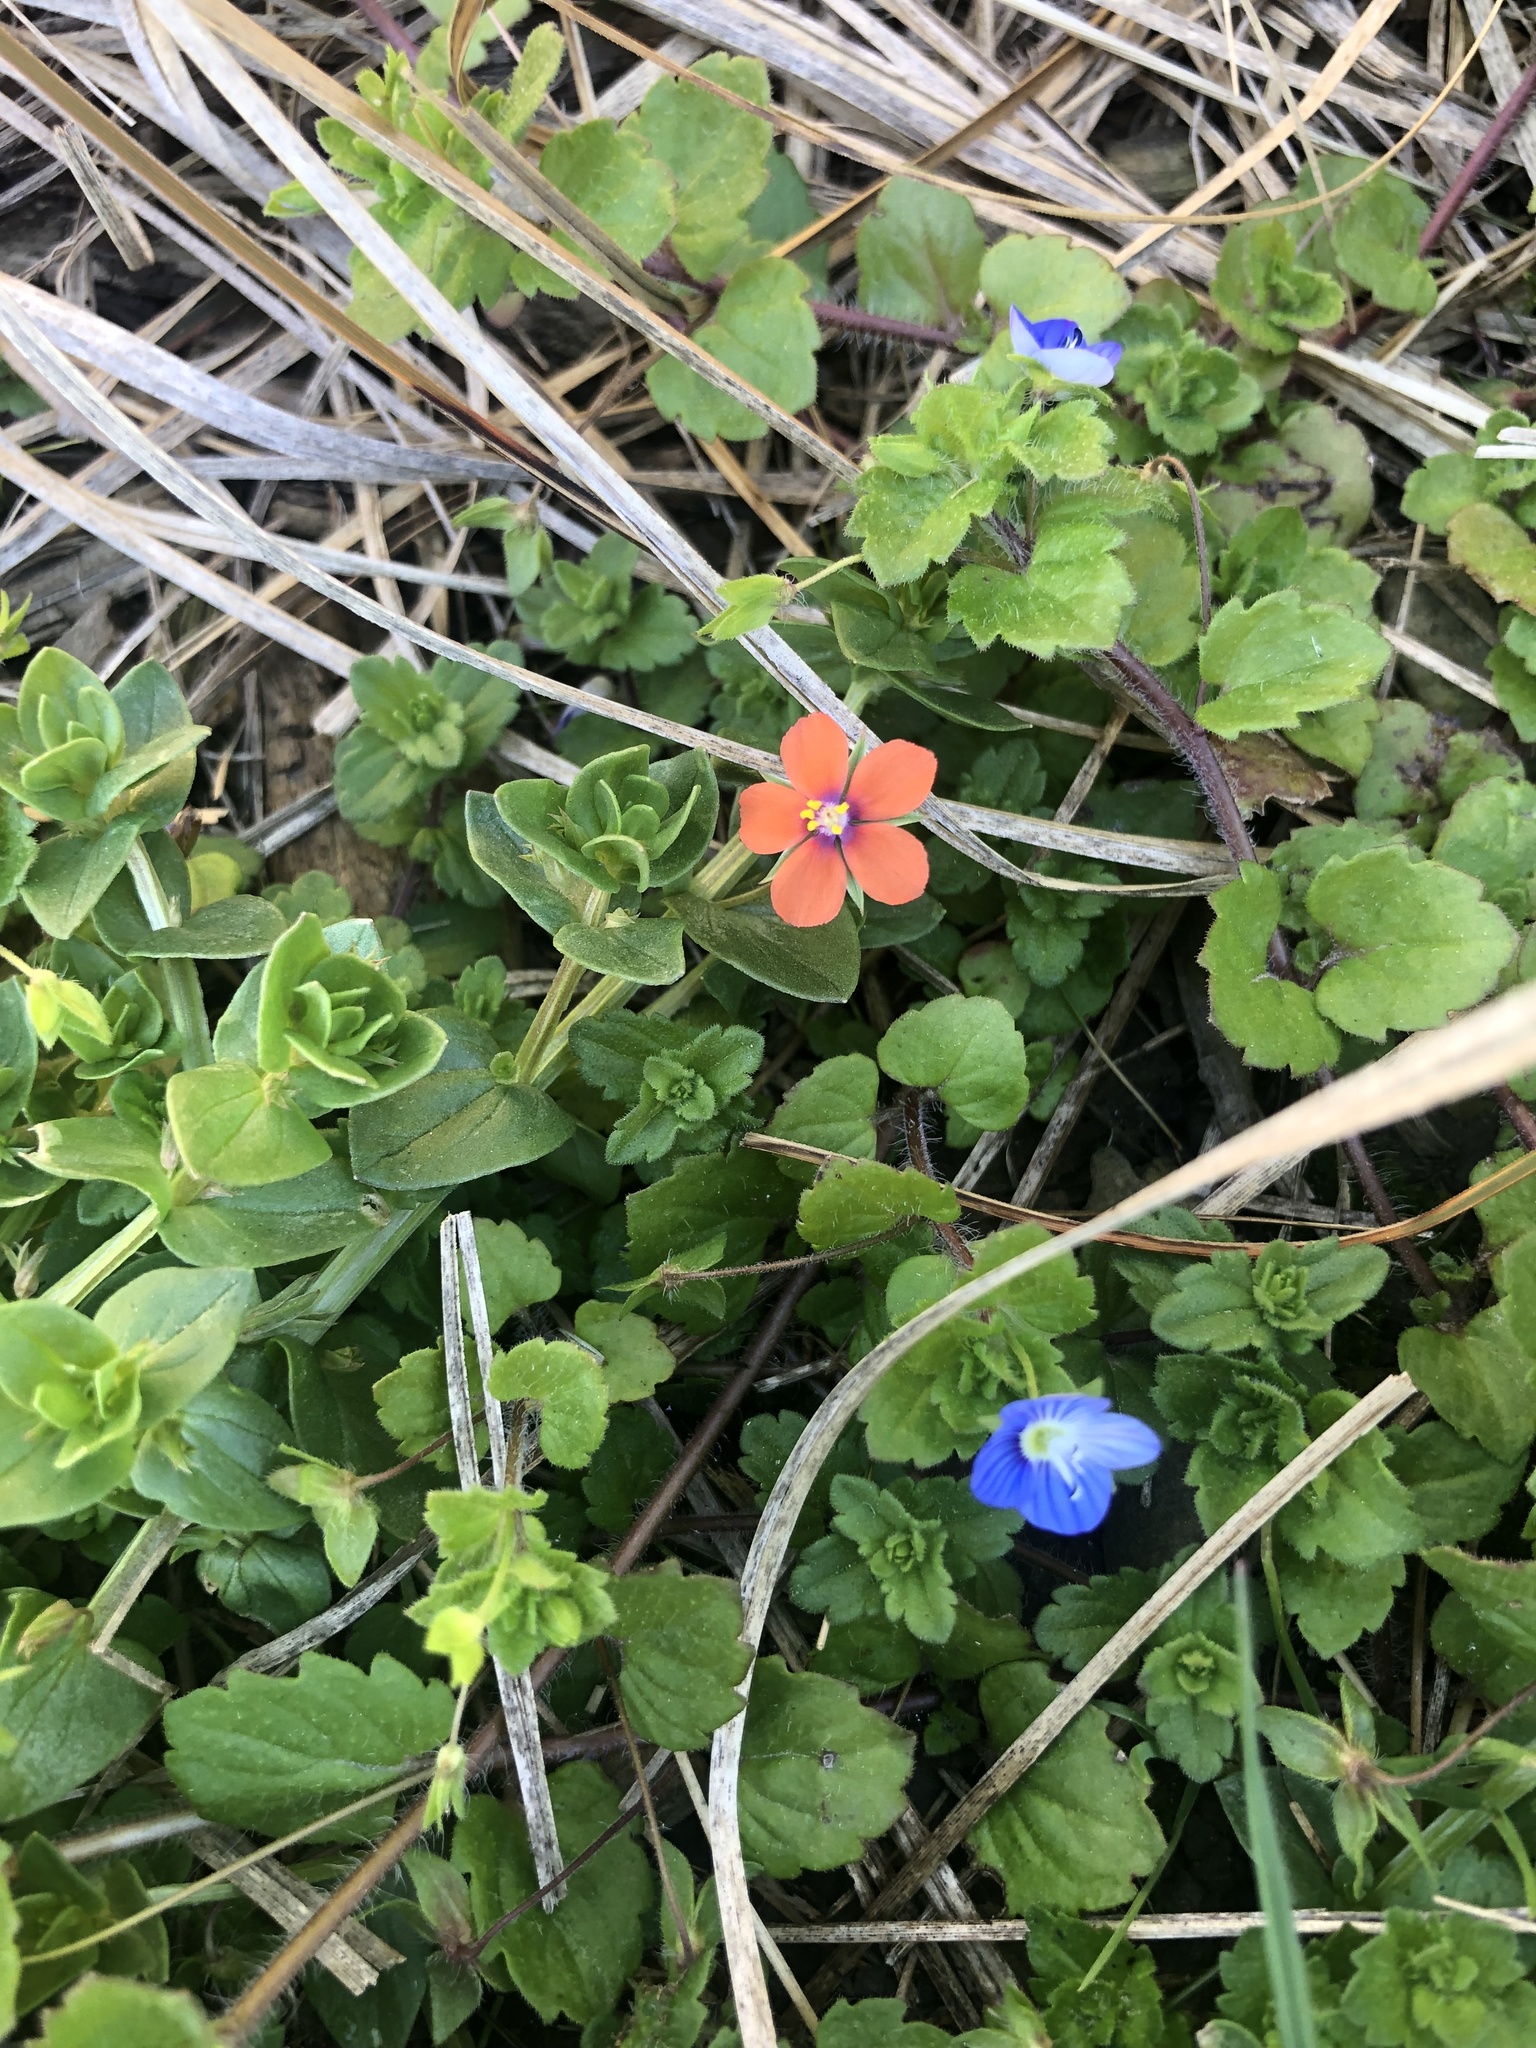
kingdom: Plantae
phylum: Tracheophyta
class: Magnoliopsida
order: Ericales
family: Primulaceae
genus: Lysimachia
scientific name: Lysimachia arvensis
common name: Scarlet pimpernel
